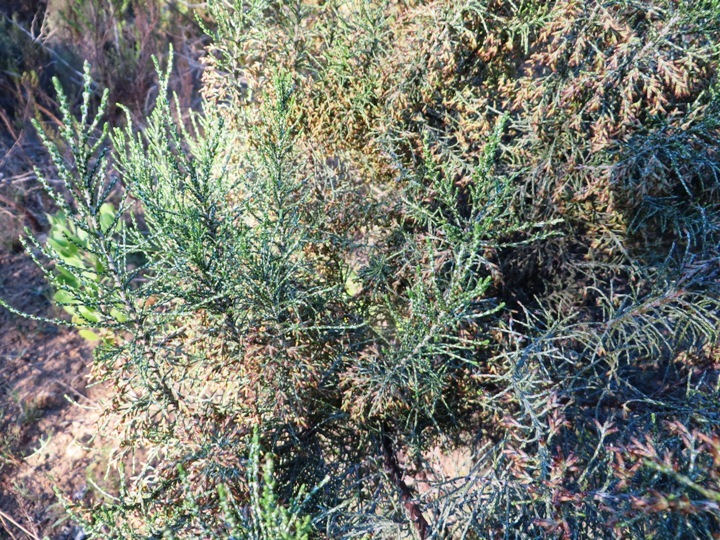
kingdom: Plantae
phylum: Tracheophyta
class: Magnoliopsida
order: Asterales
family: Asteraceae
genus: Dicerothamnus
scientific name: Dicerothamnus rhinocerotis
